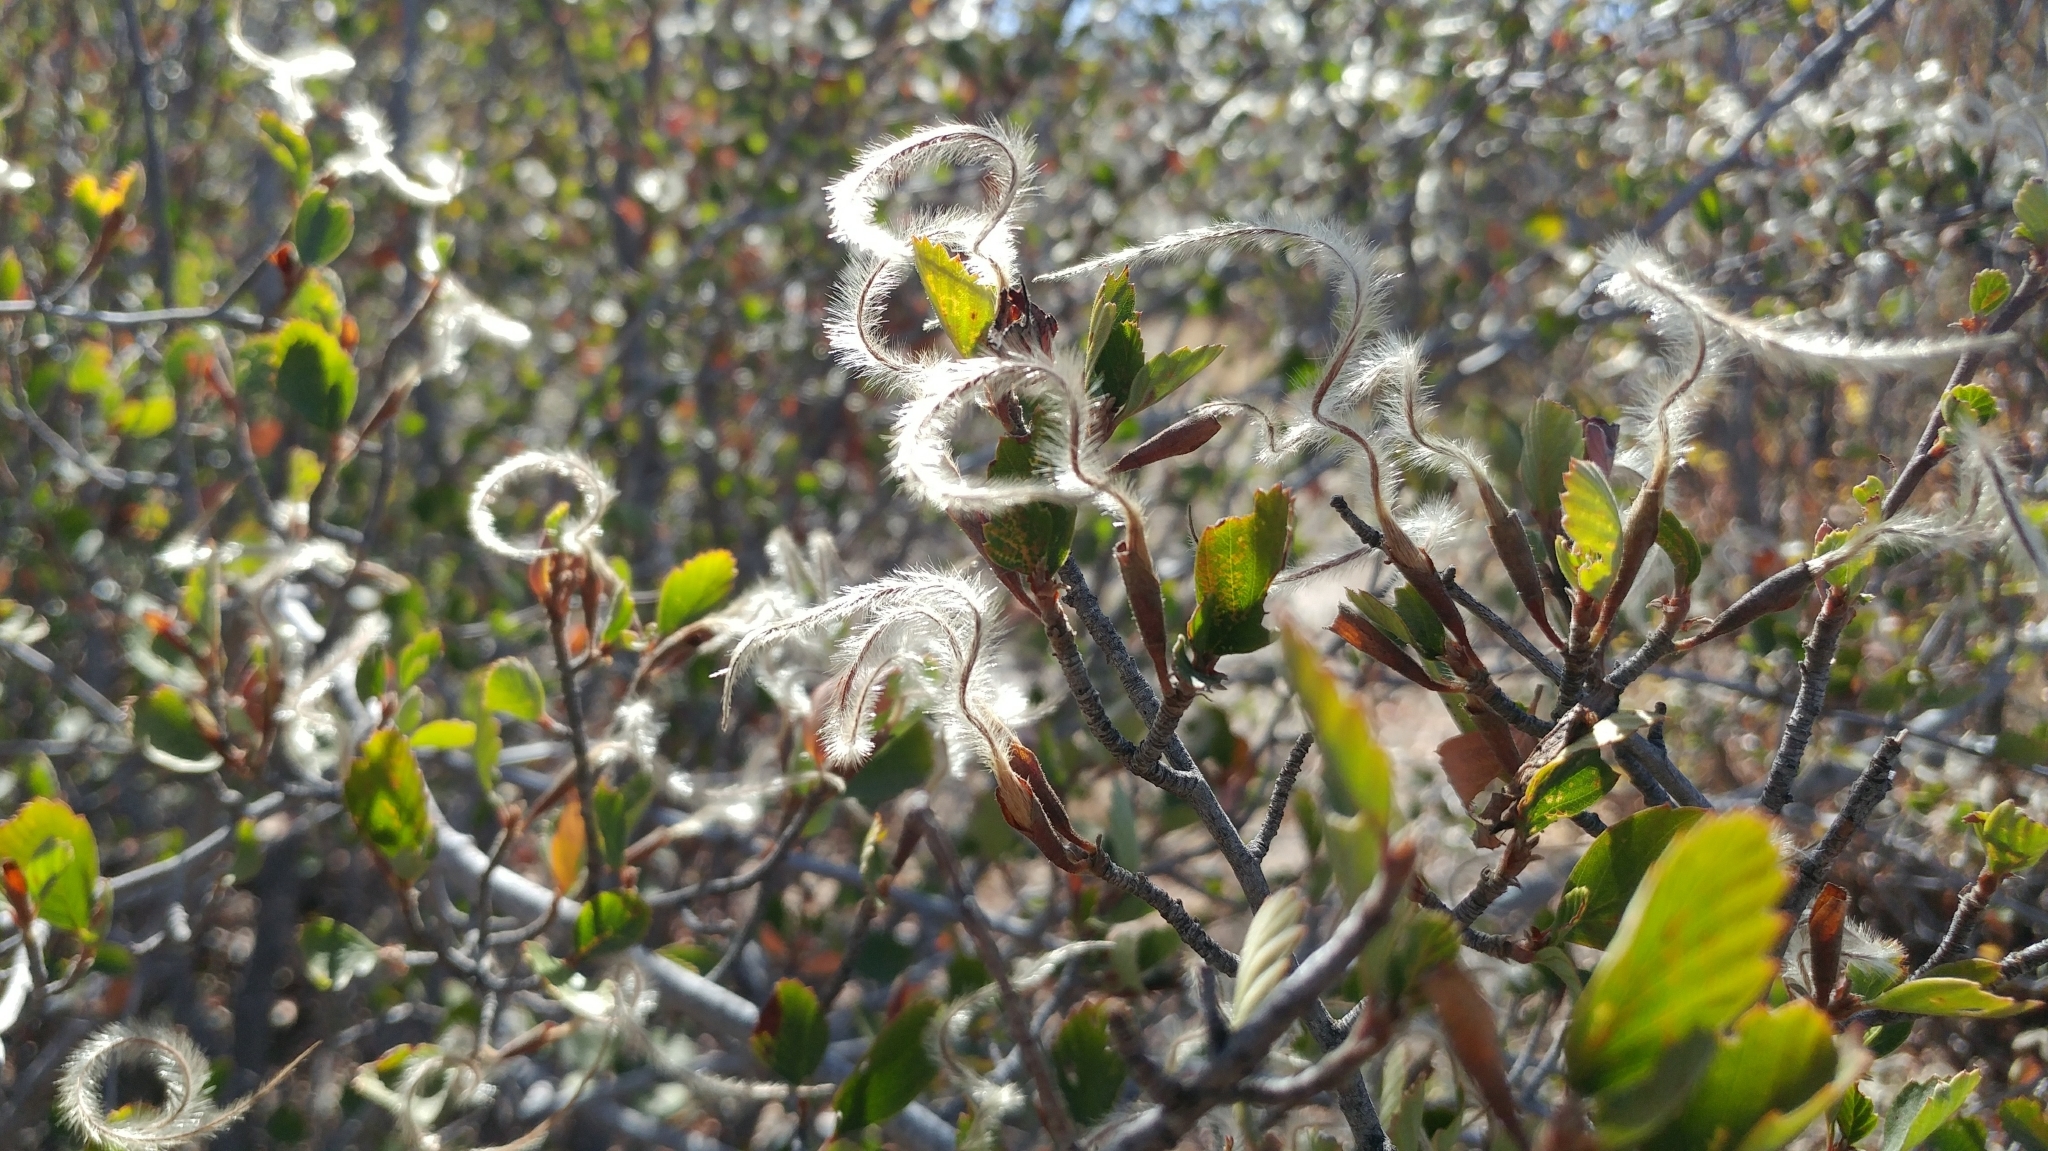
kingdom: Plantae
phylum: Tracheophyta
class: Magnoliopsida
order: Rosales
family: Rosaceae
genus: Cercocarpus
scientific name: Cercocarpus betuloides
